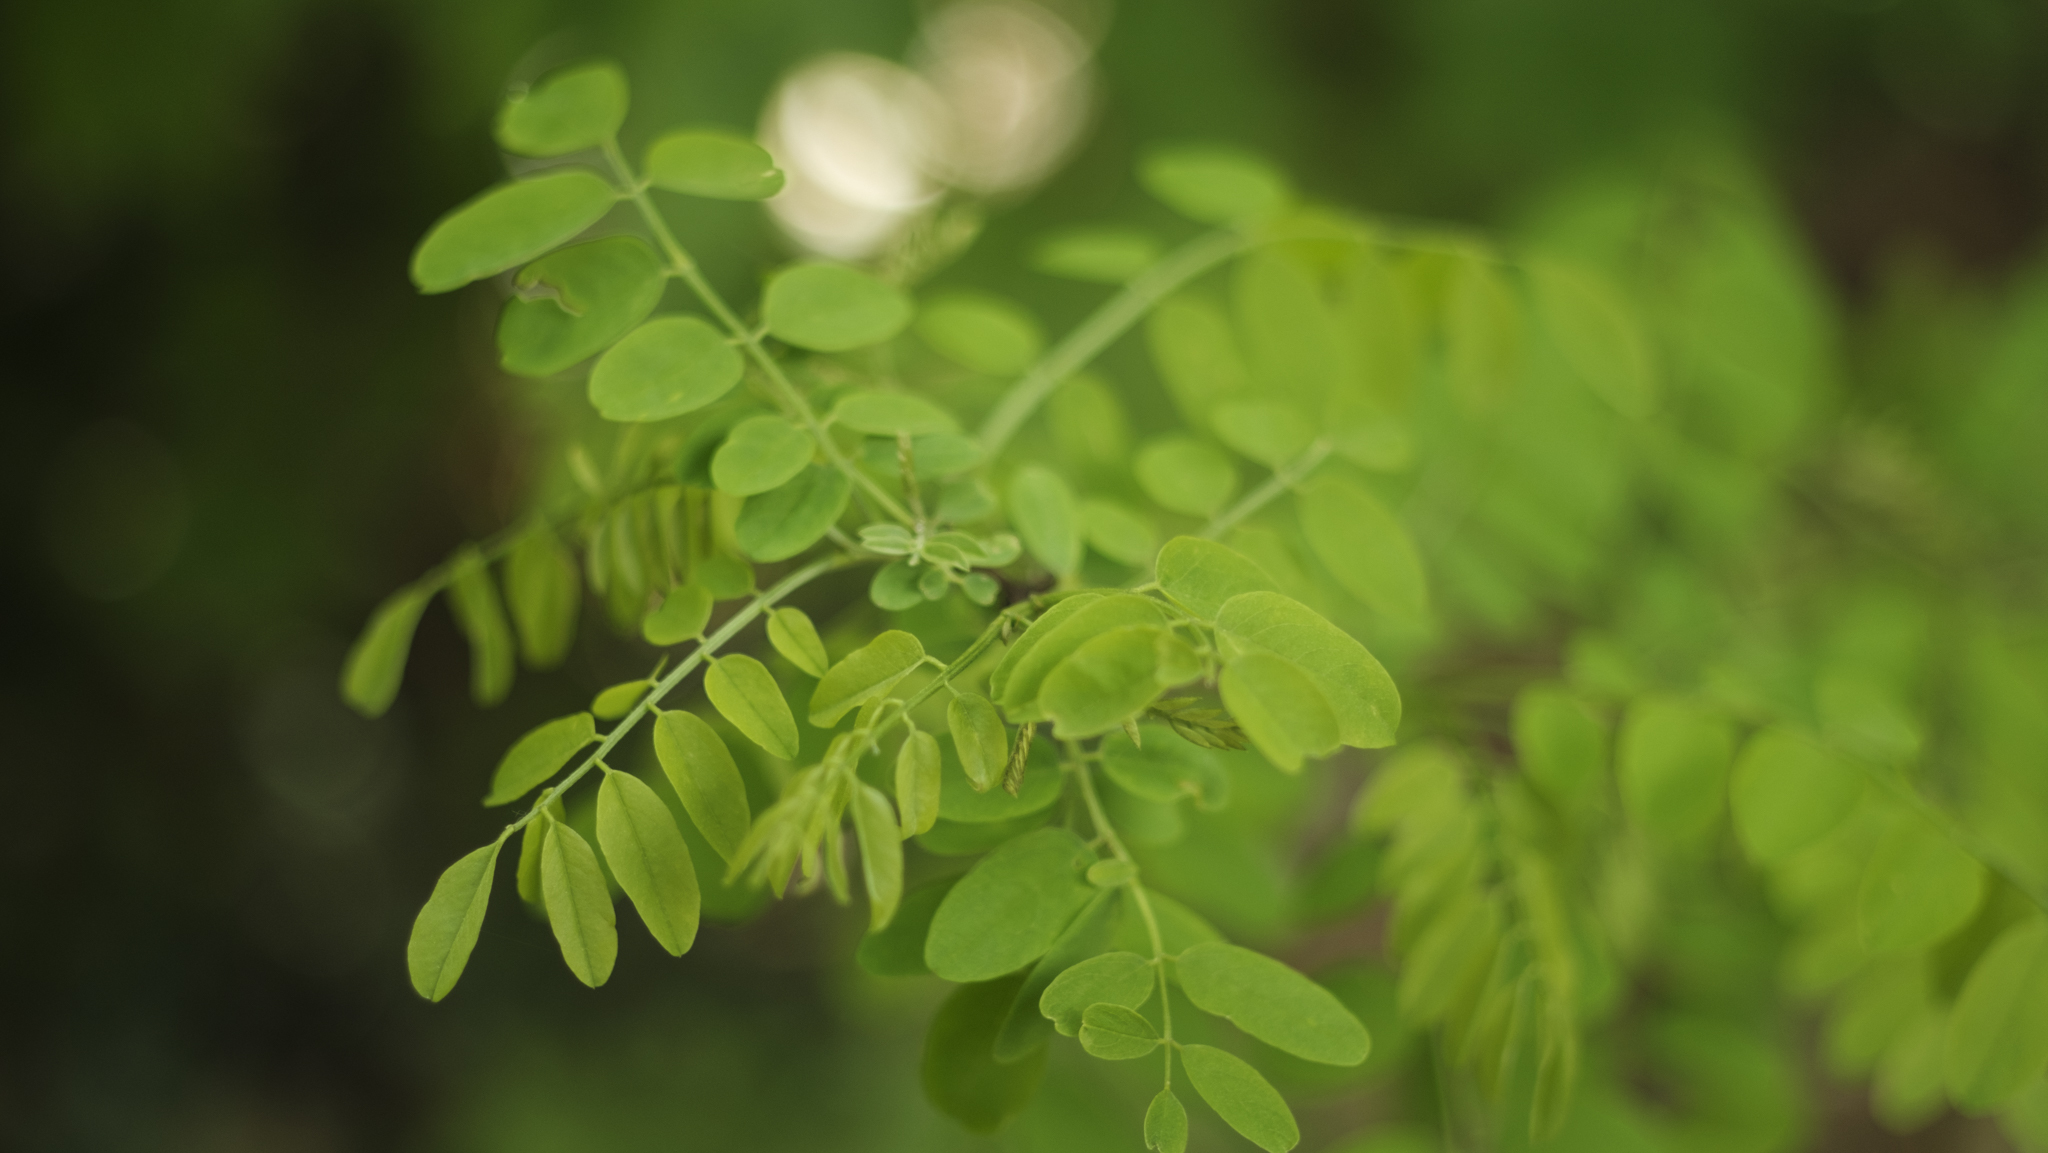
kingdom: Plantae
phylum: Tracheophyta
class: Magnoliopsida
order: Fabales
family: Fabaceae
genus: Robinia
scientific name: Robinia pseudoacacia
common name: Black locust
